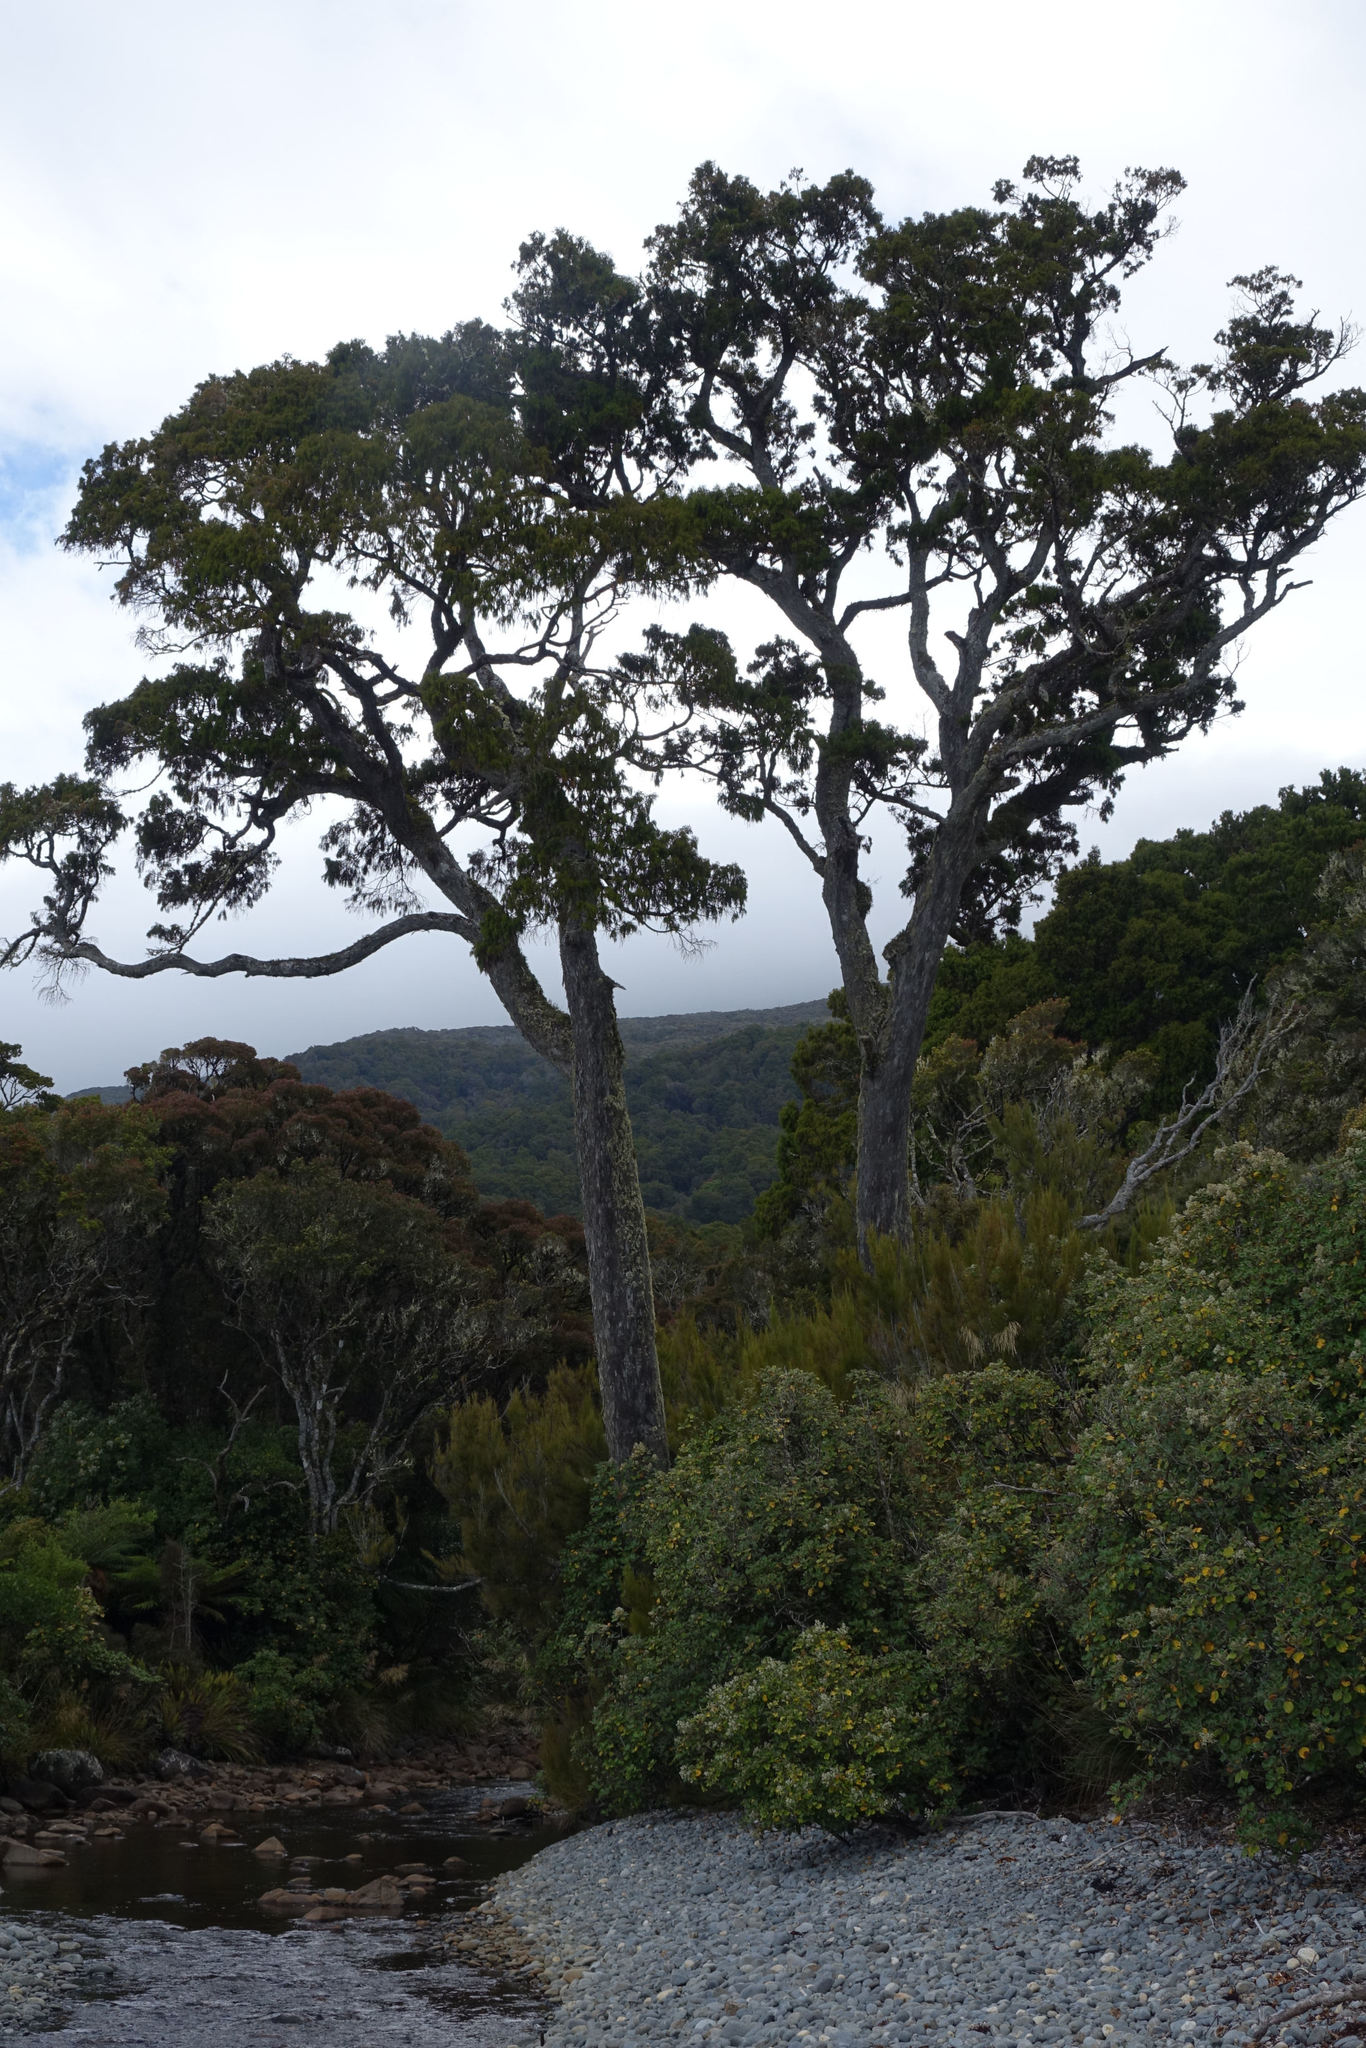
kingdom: Plantae
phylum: Tracheophyta
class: Pinopsida
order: Pinales
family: Podocarpaceae
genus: Dacrydium
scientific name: Dacrydium cupressinum
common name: Red pine
